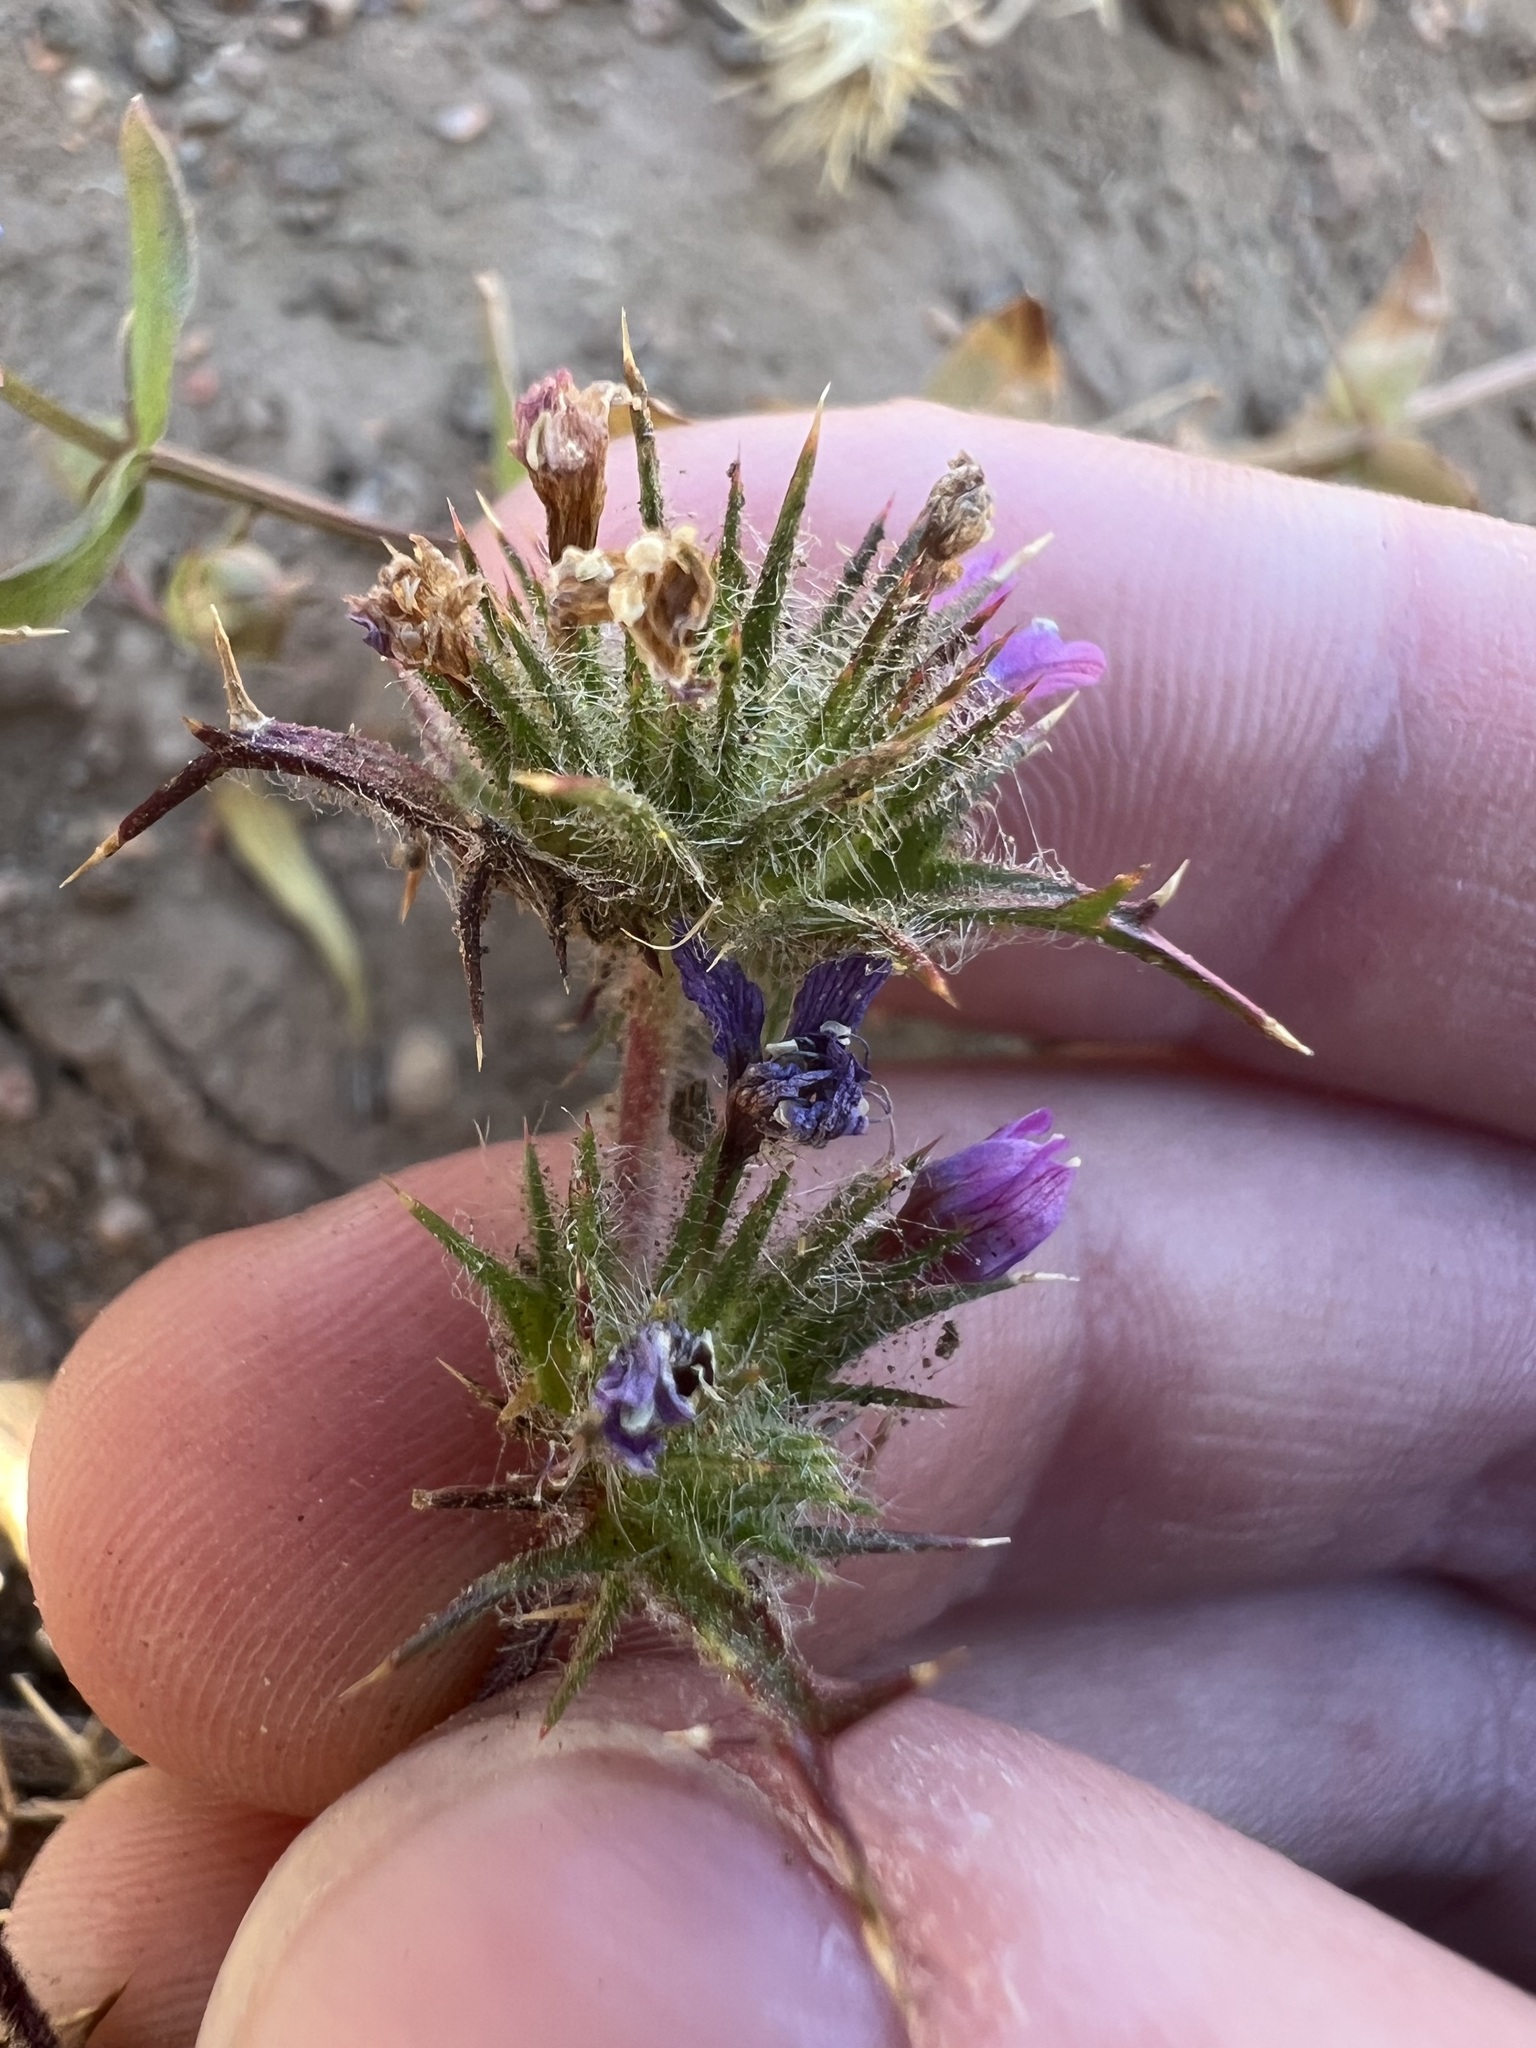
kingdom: Plantae
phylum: Tracheophyta
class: Magnoliopsida
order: Ericales
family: Polemoniaceae
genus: Navarretia
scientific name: Navarretia hamata
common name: Hooked navarretia
